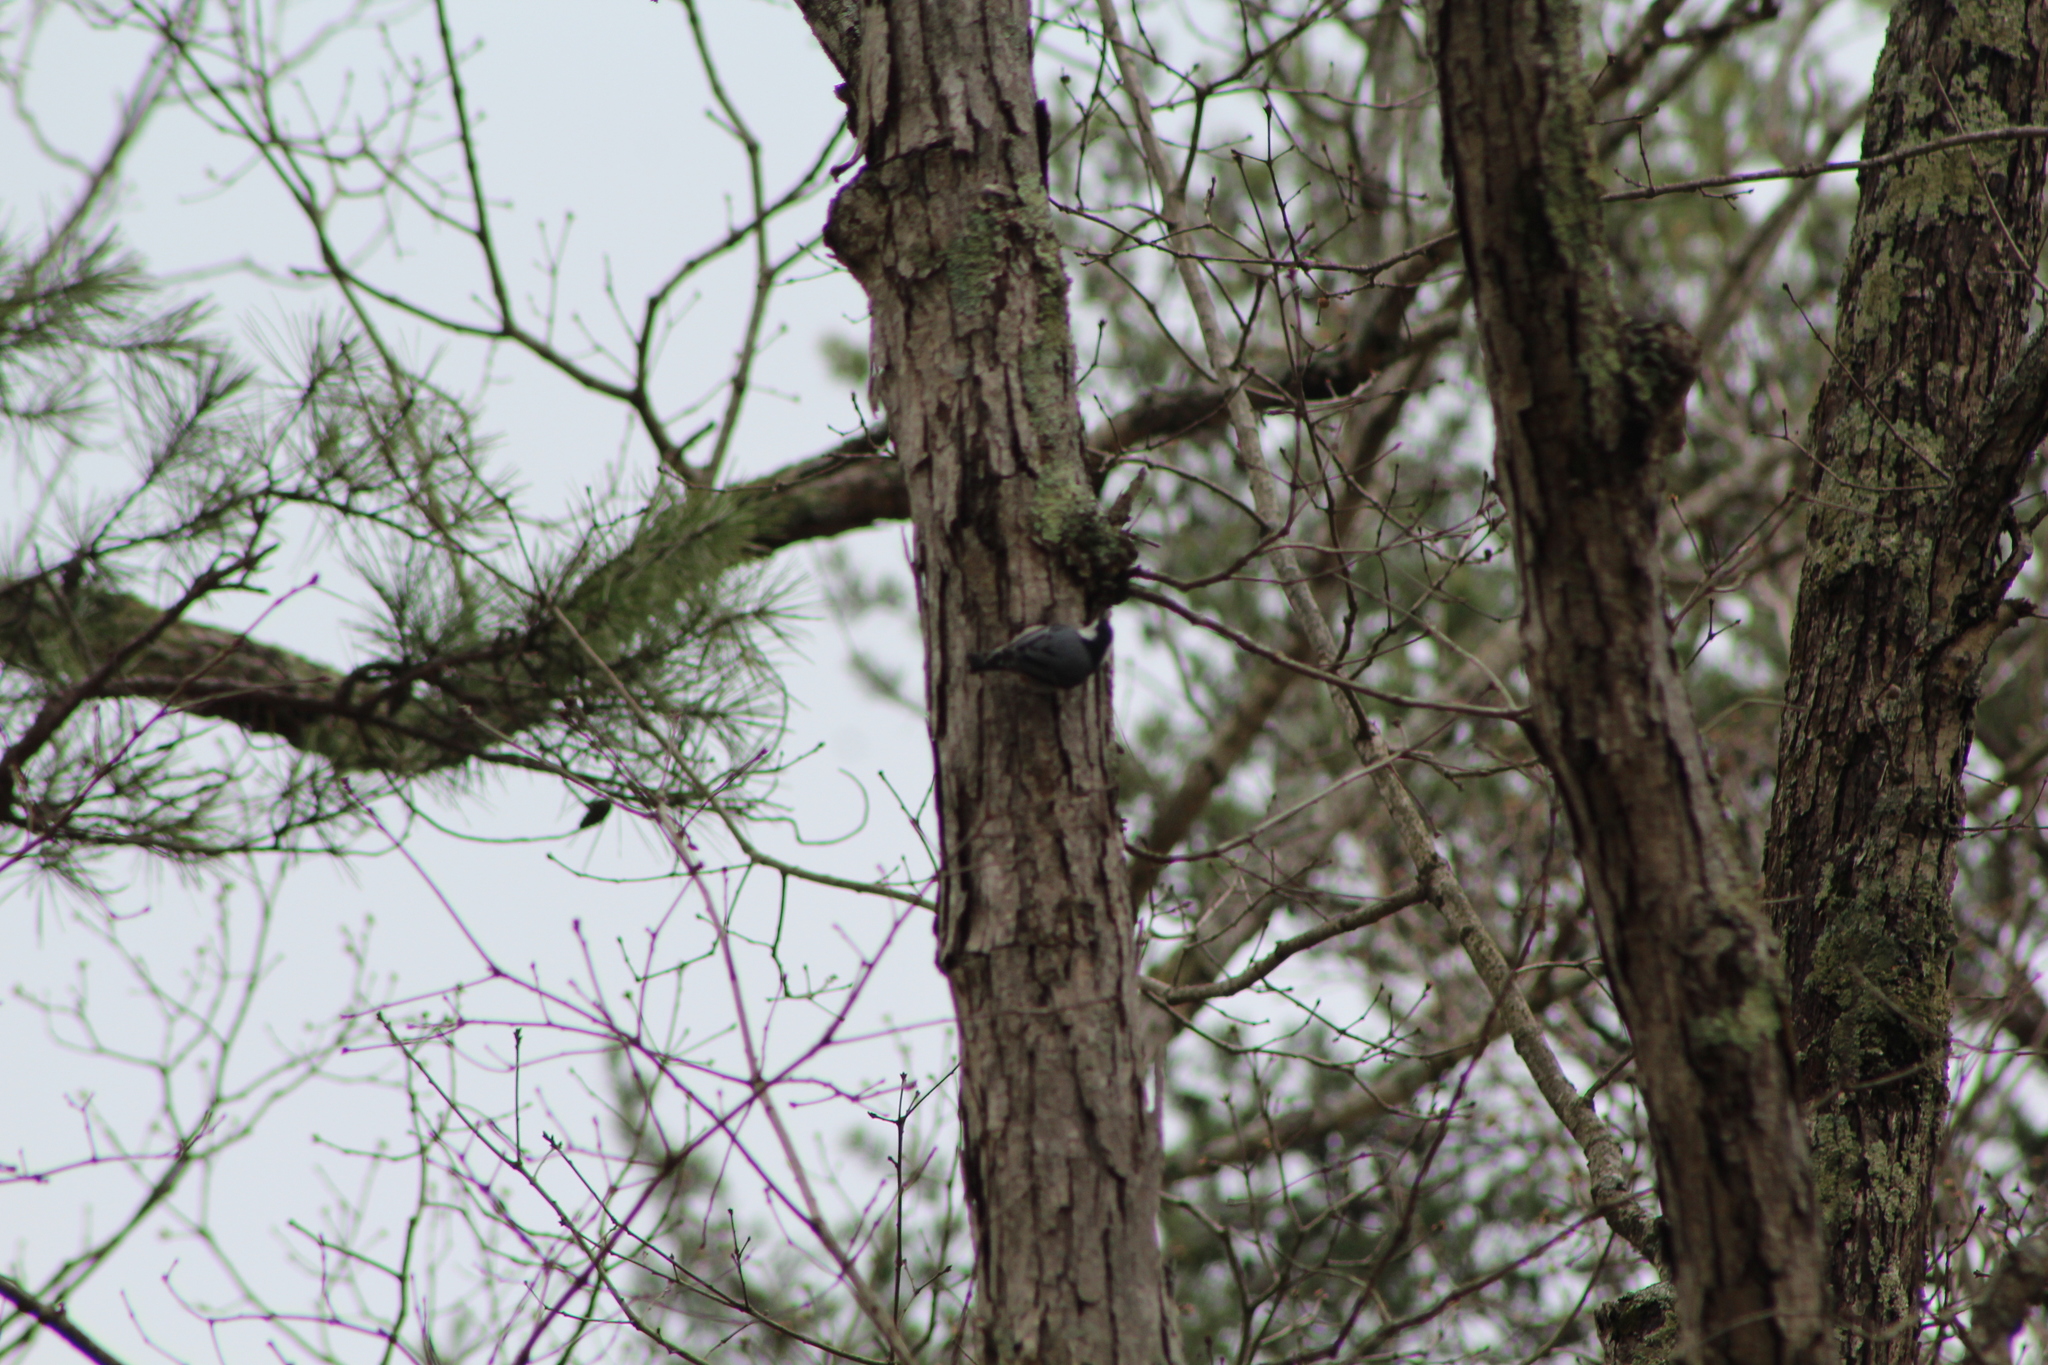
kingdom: Animalia
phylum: Chordata
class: Aves
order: Passeriformes
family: Sittidae
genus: Sitta
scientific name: Sitta carolinensis
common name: White-breasted nuthatch
